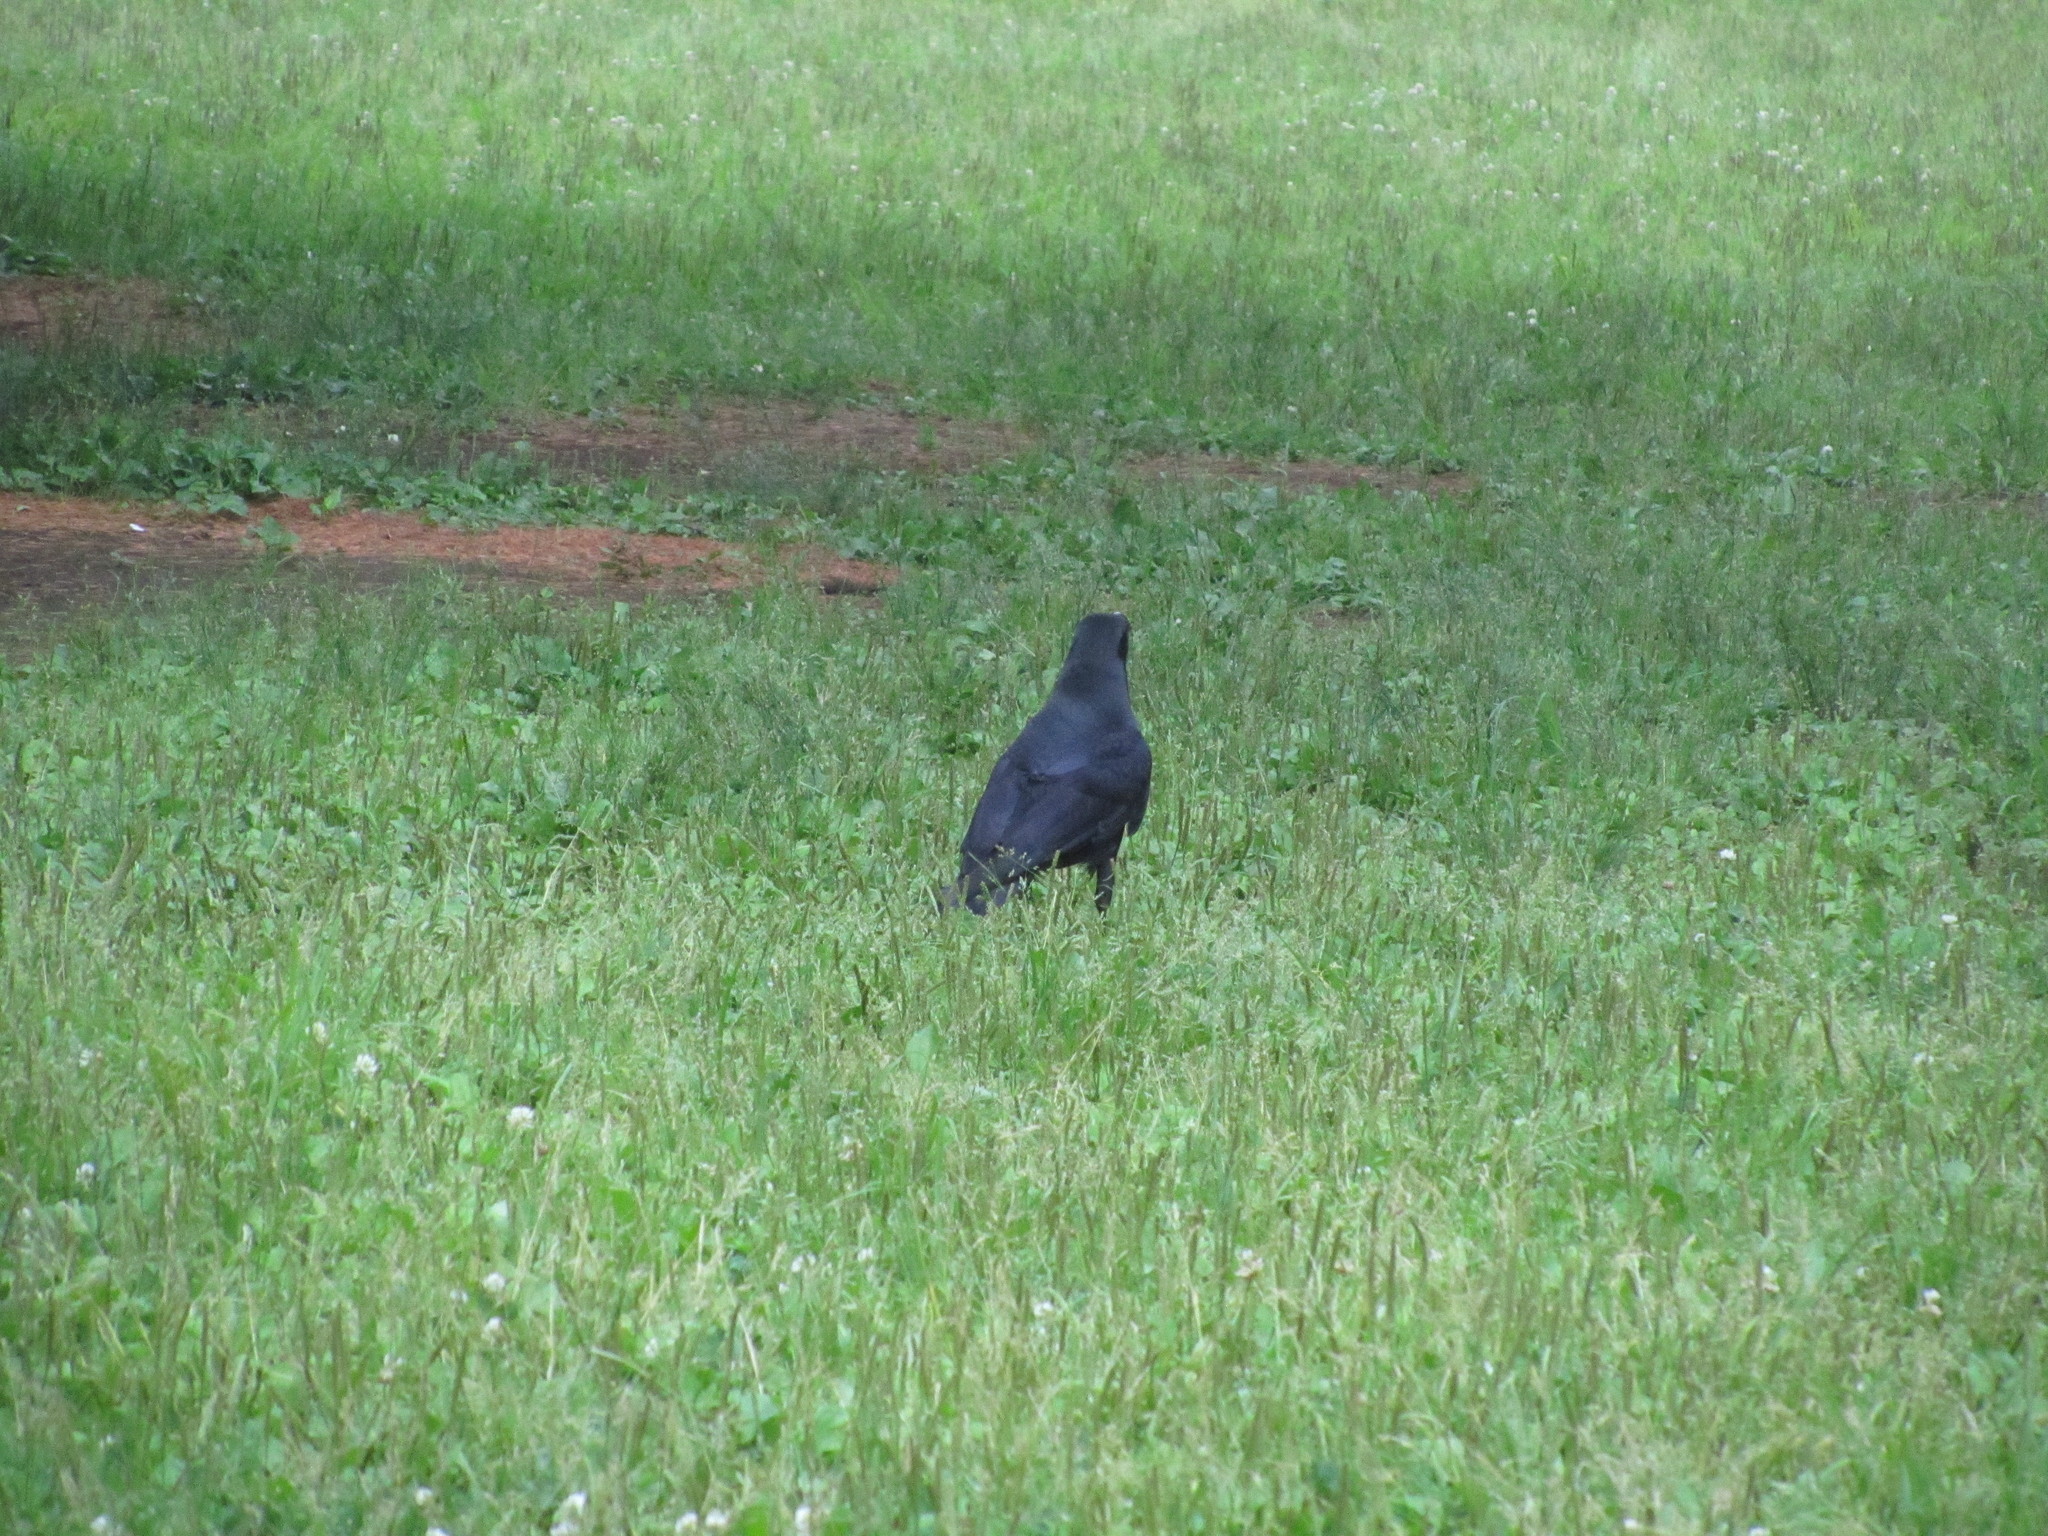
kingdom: Animalia
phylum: Chordata
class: Aves
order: Passeriformes
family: Corvidae
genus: Corvus
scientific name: Corvus macrorhynchos
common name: Large-billed crow
